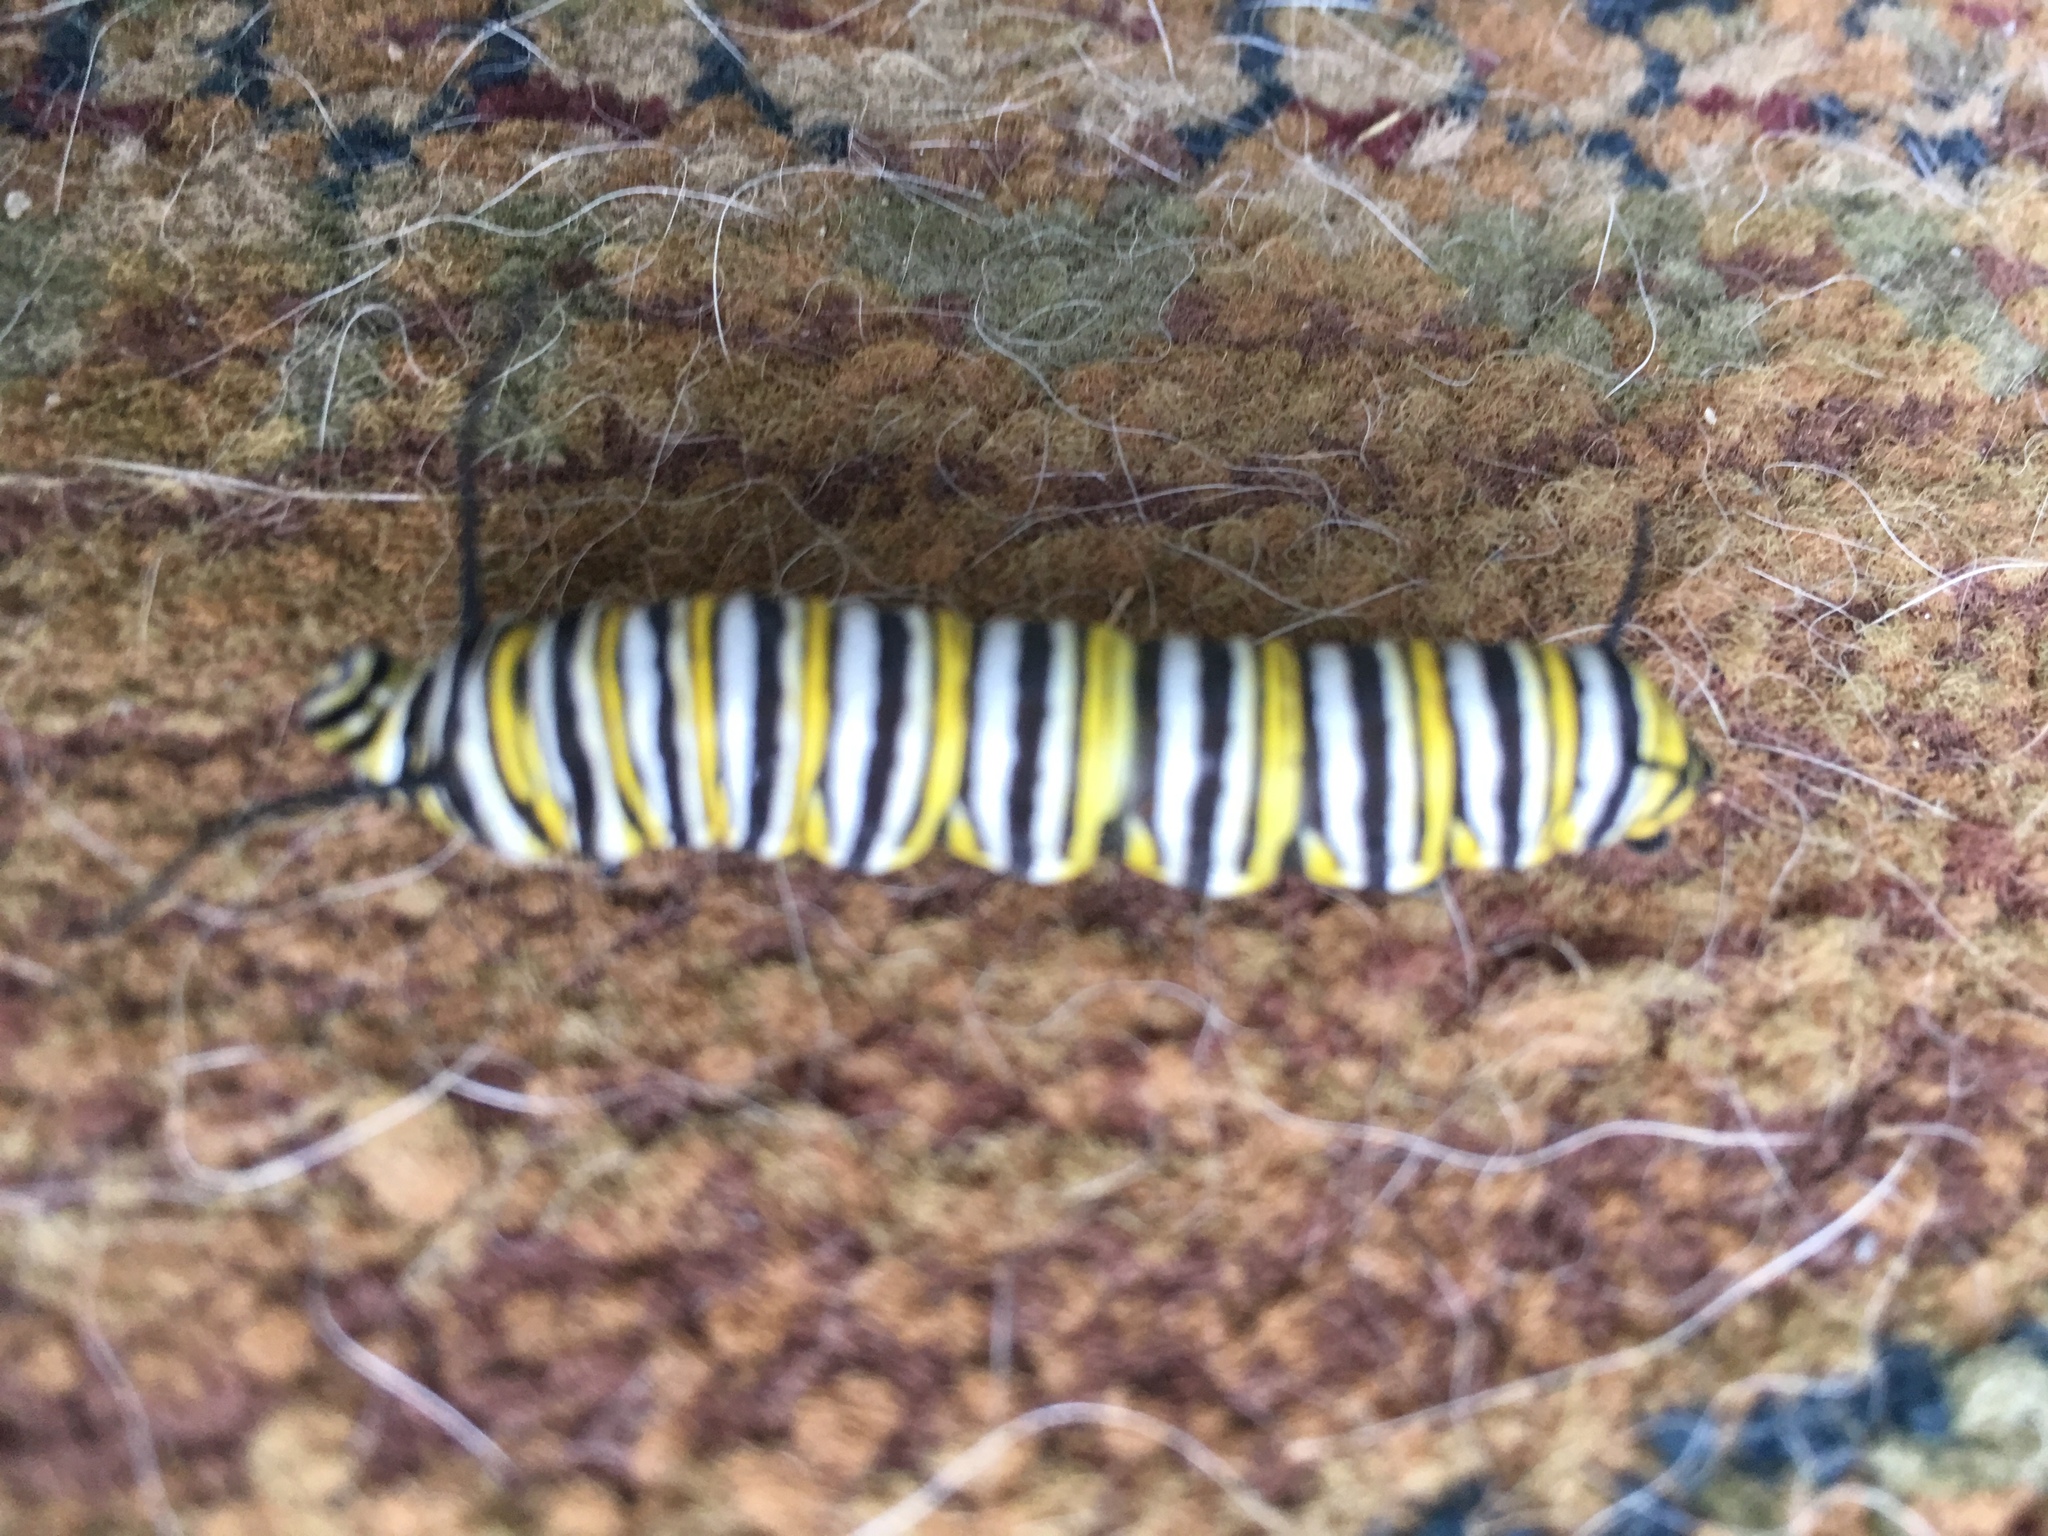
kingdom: Animalia
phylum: Arthropoda
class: Insecta
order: Lepidoptera
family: Nymphalidae
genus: Danaus
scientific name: Danaus plexippus
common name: Monarch
